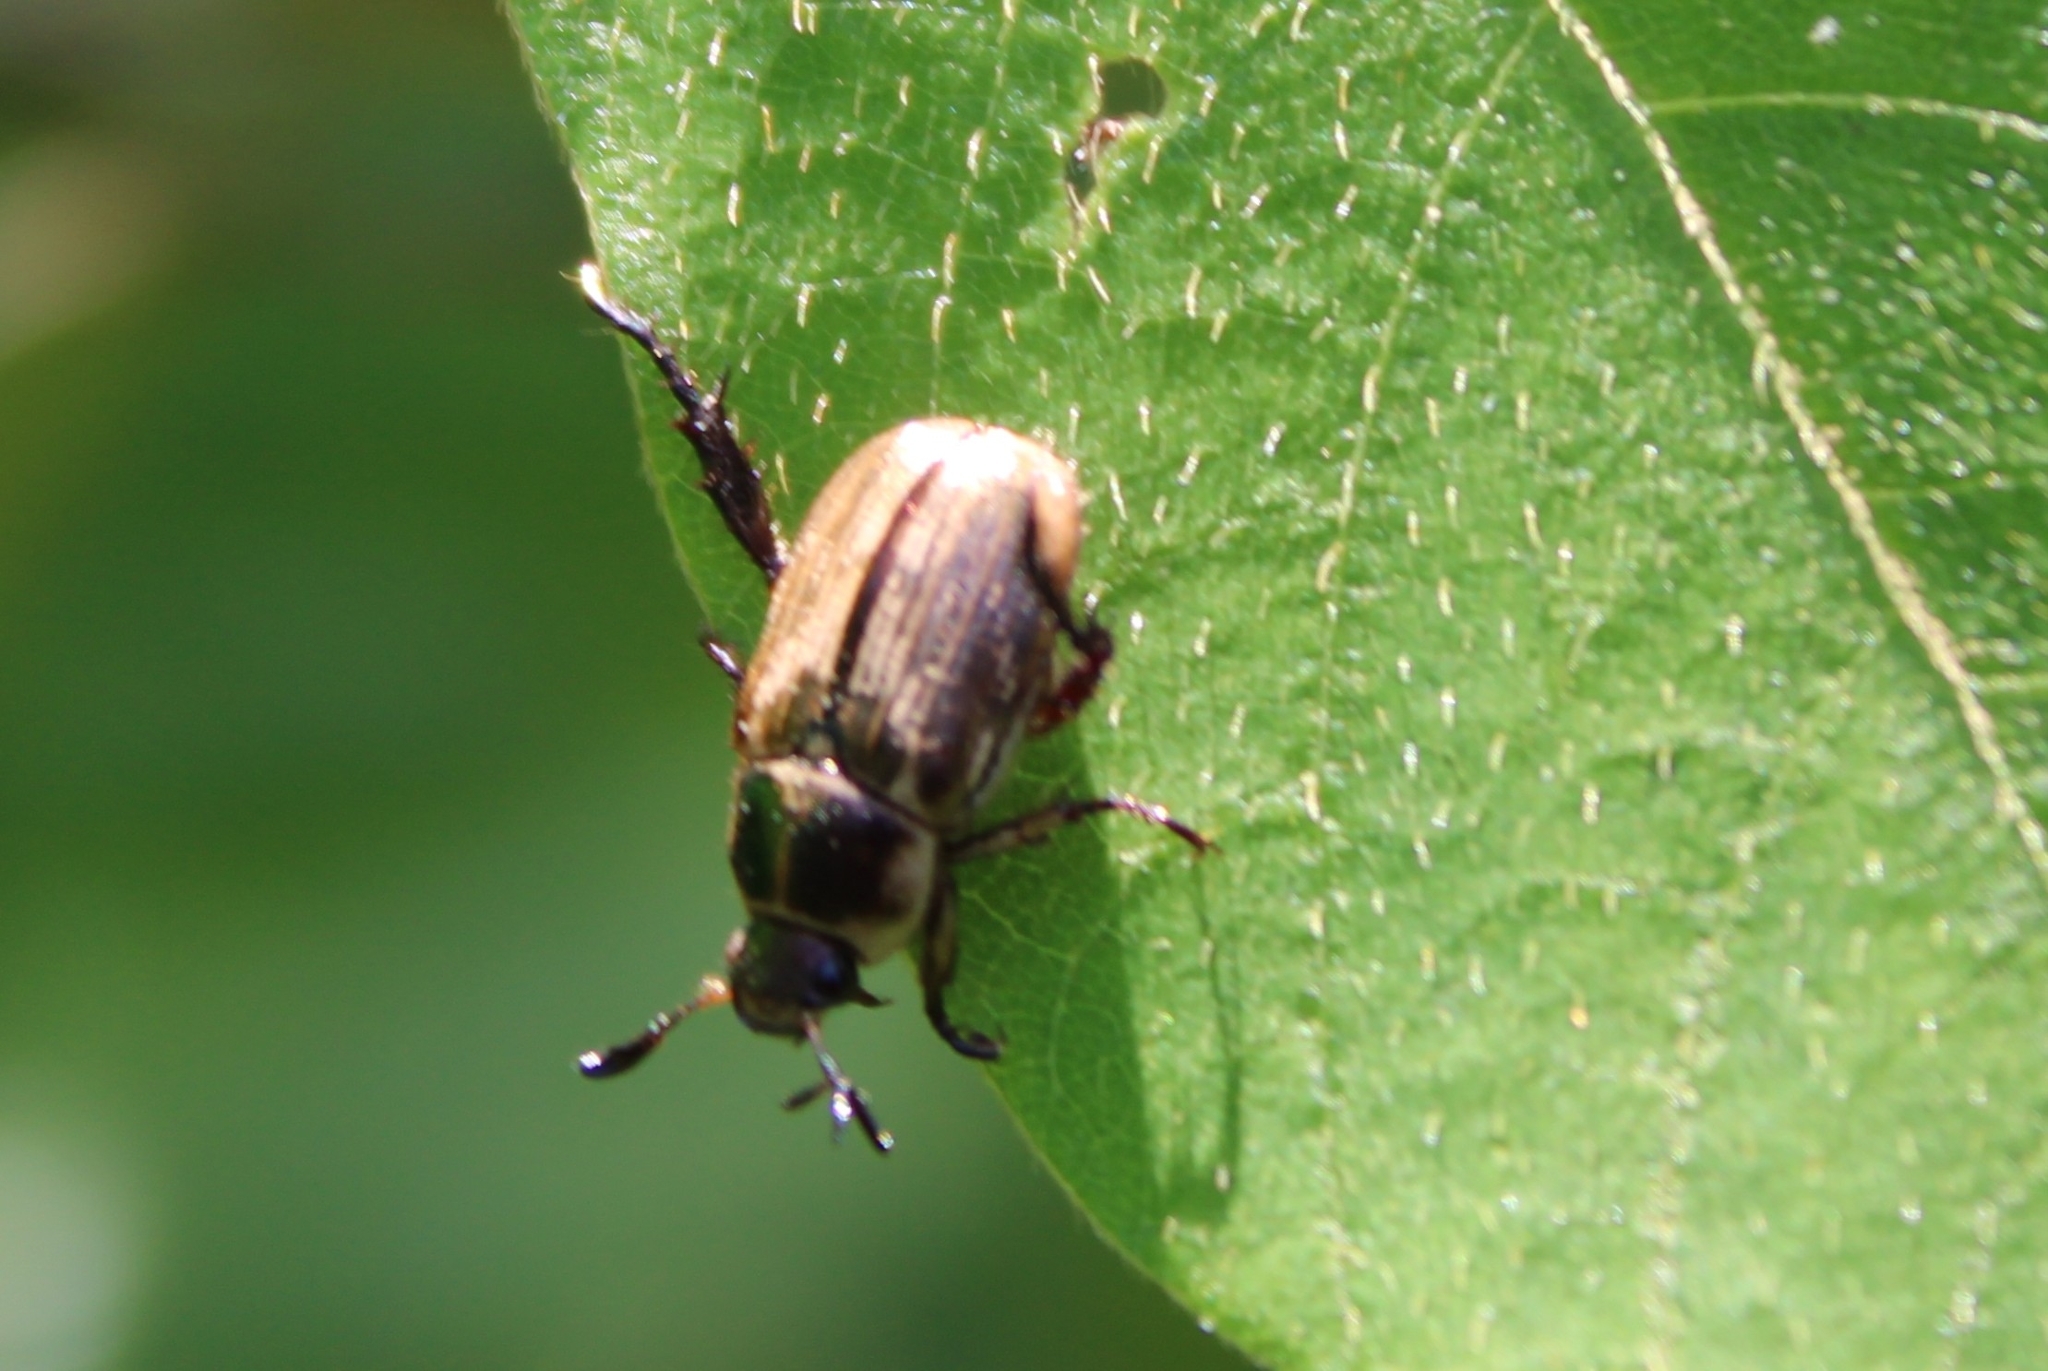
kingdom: Animalia
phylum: Arthropoda
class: Insecta
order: Coleoptera
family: Scarabaeidae
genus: Exomala
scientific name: Exomala orientalis
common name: Oriental beetle
